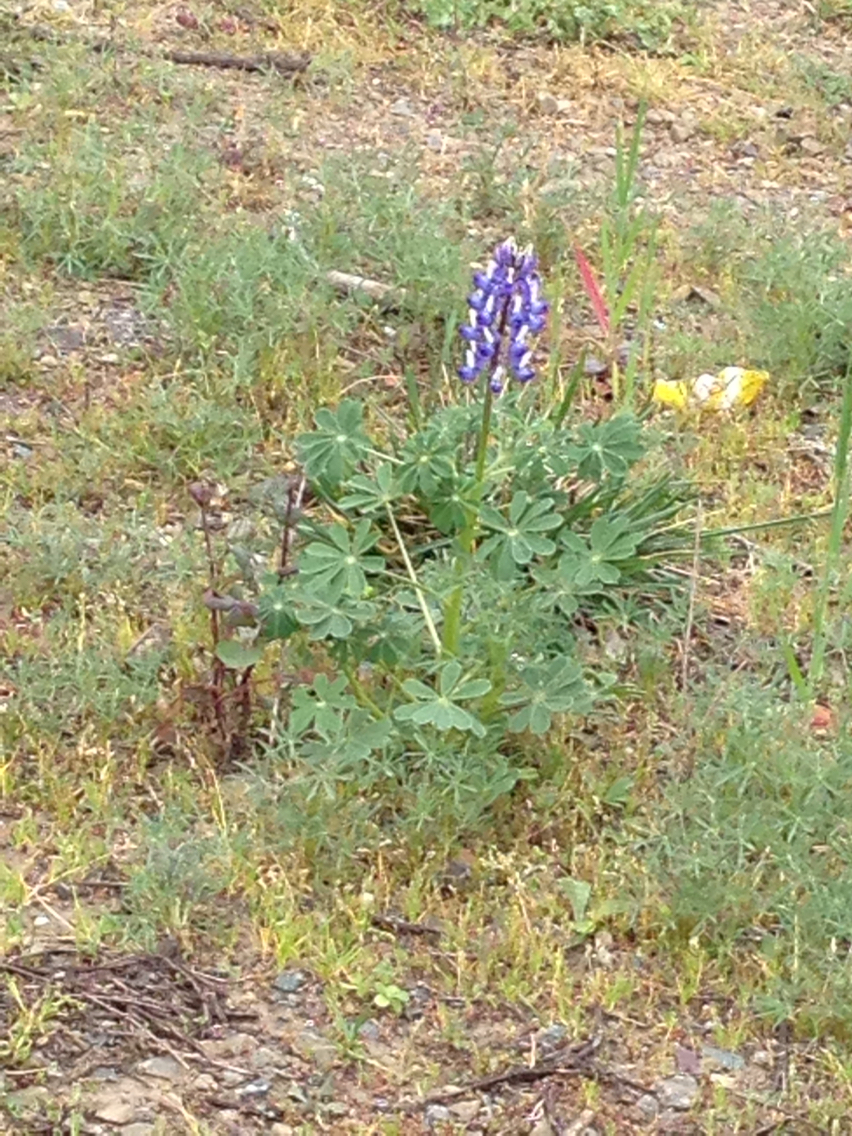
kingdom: Plantae
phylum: Tracheophyta
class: Magnoliopsida
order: Fabales
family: Fabaceae
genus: Lupinus
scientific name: Lupinus succulentus
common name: Arroyo lupine
